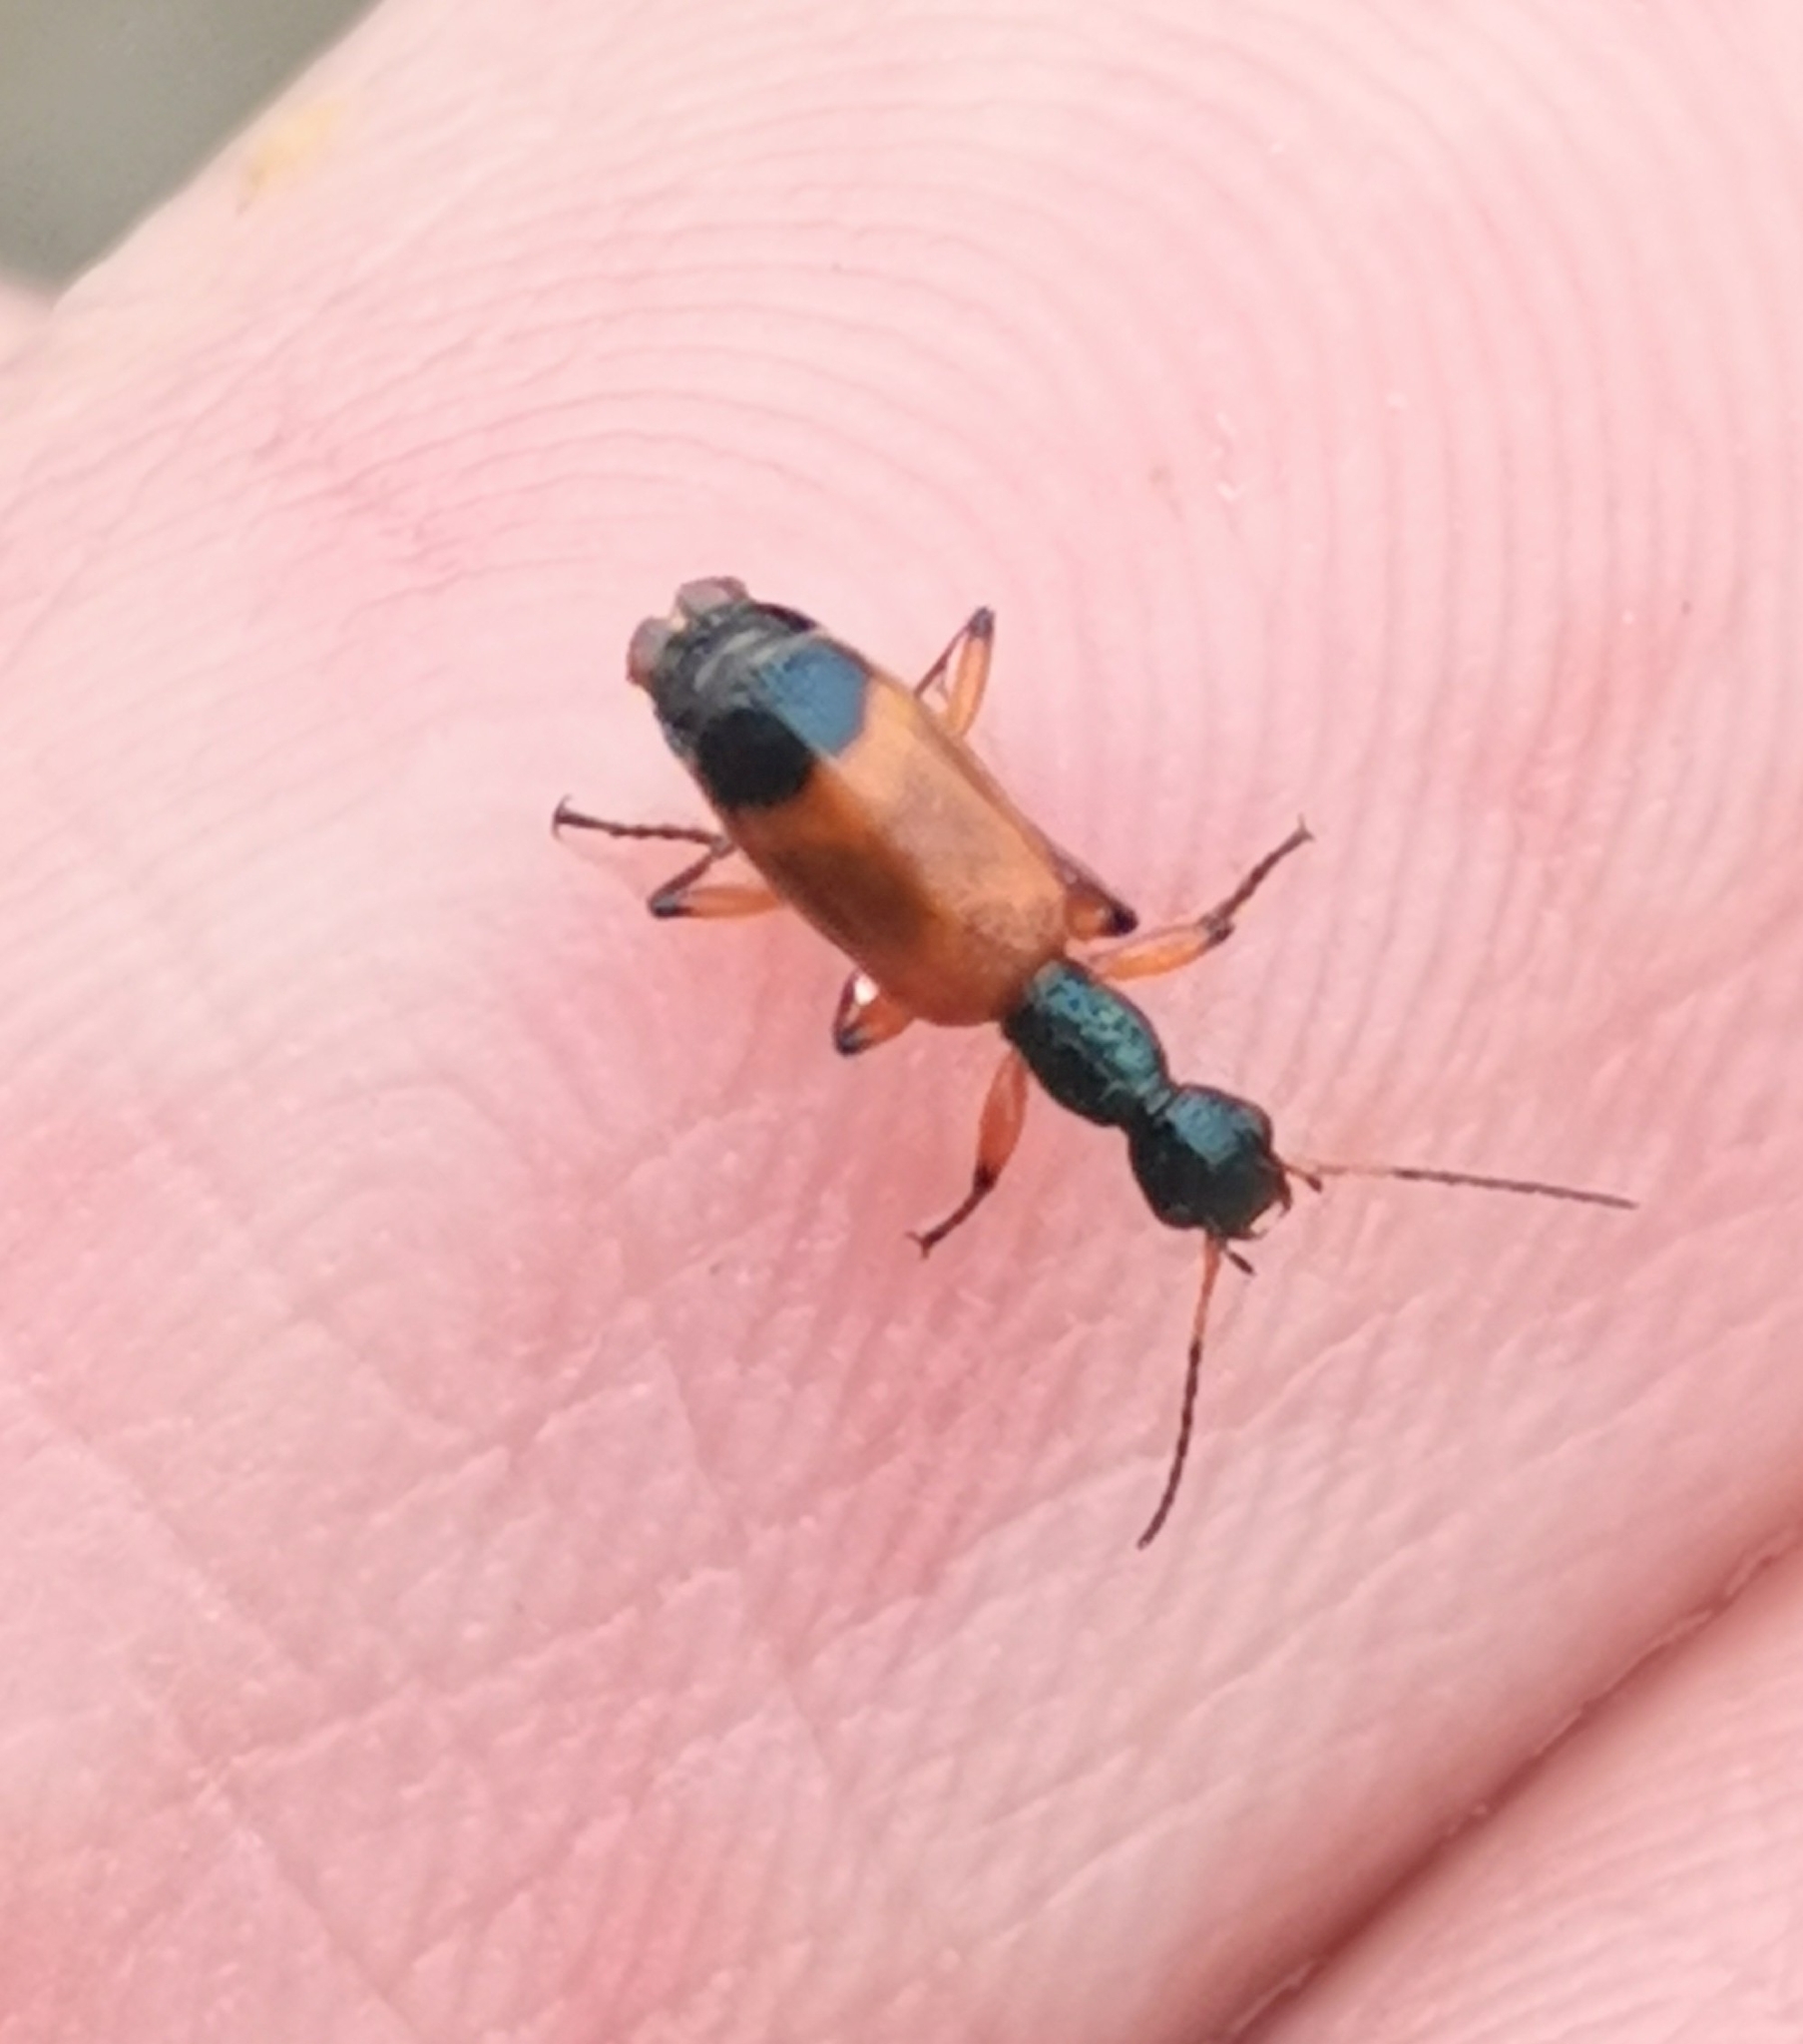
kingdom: Animalia
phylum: Arthropoda
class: Insecta
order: Coleoptera
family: Carabidae
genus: Odacantha
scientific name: Odacantha melanura
